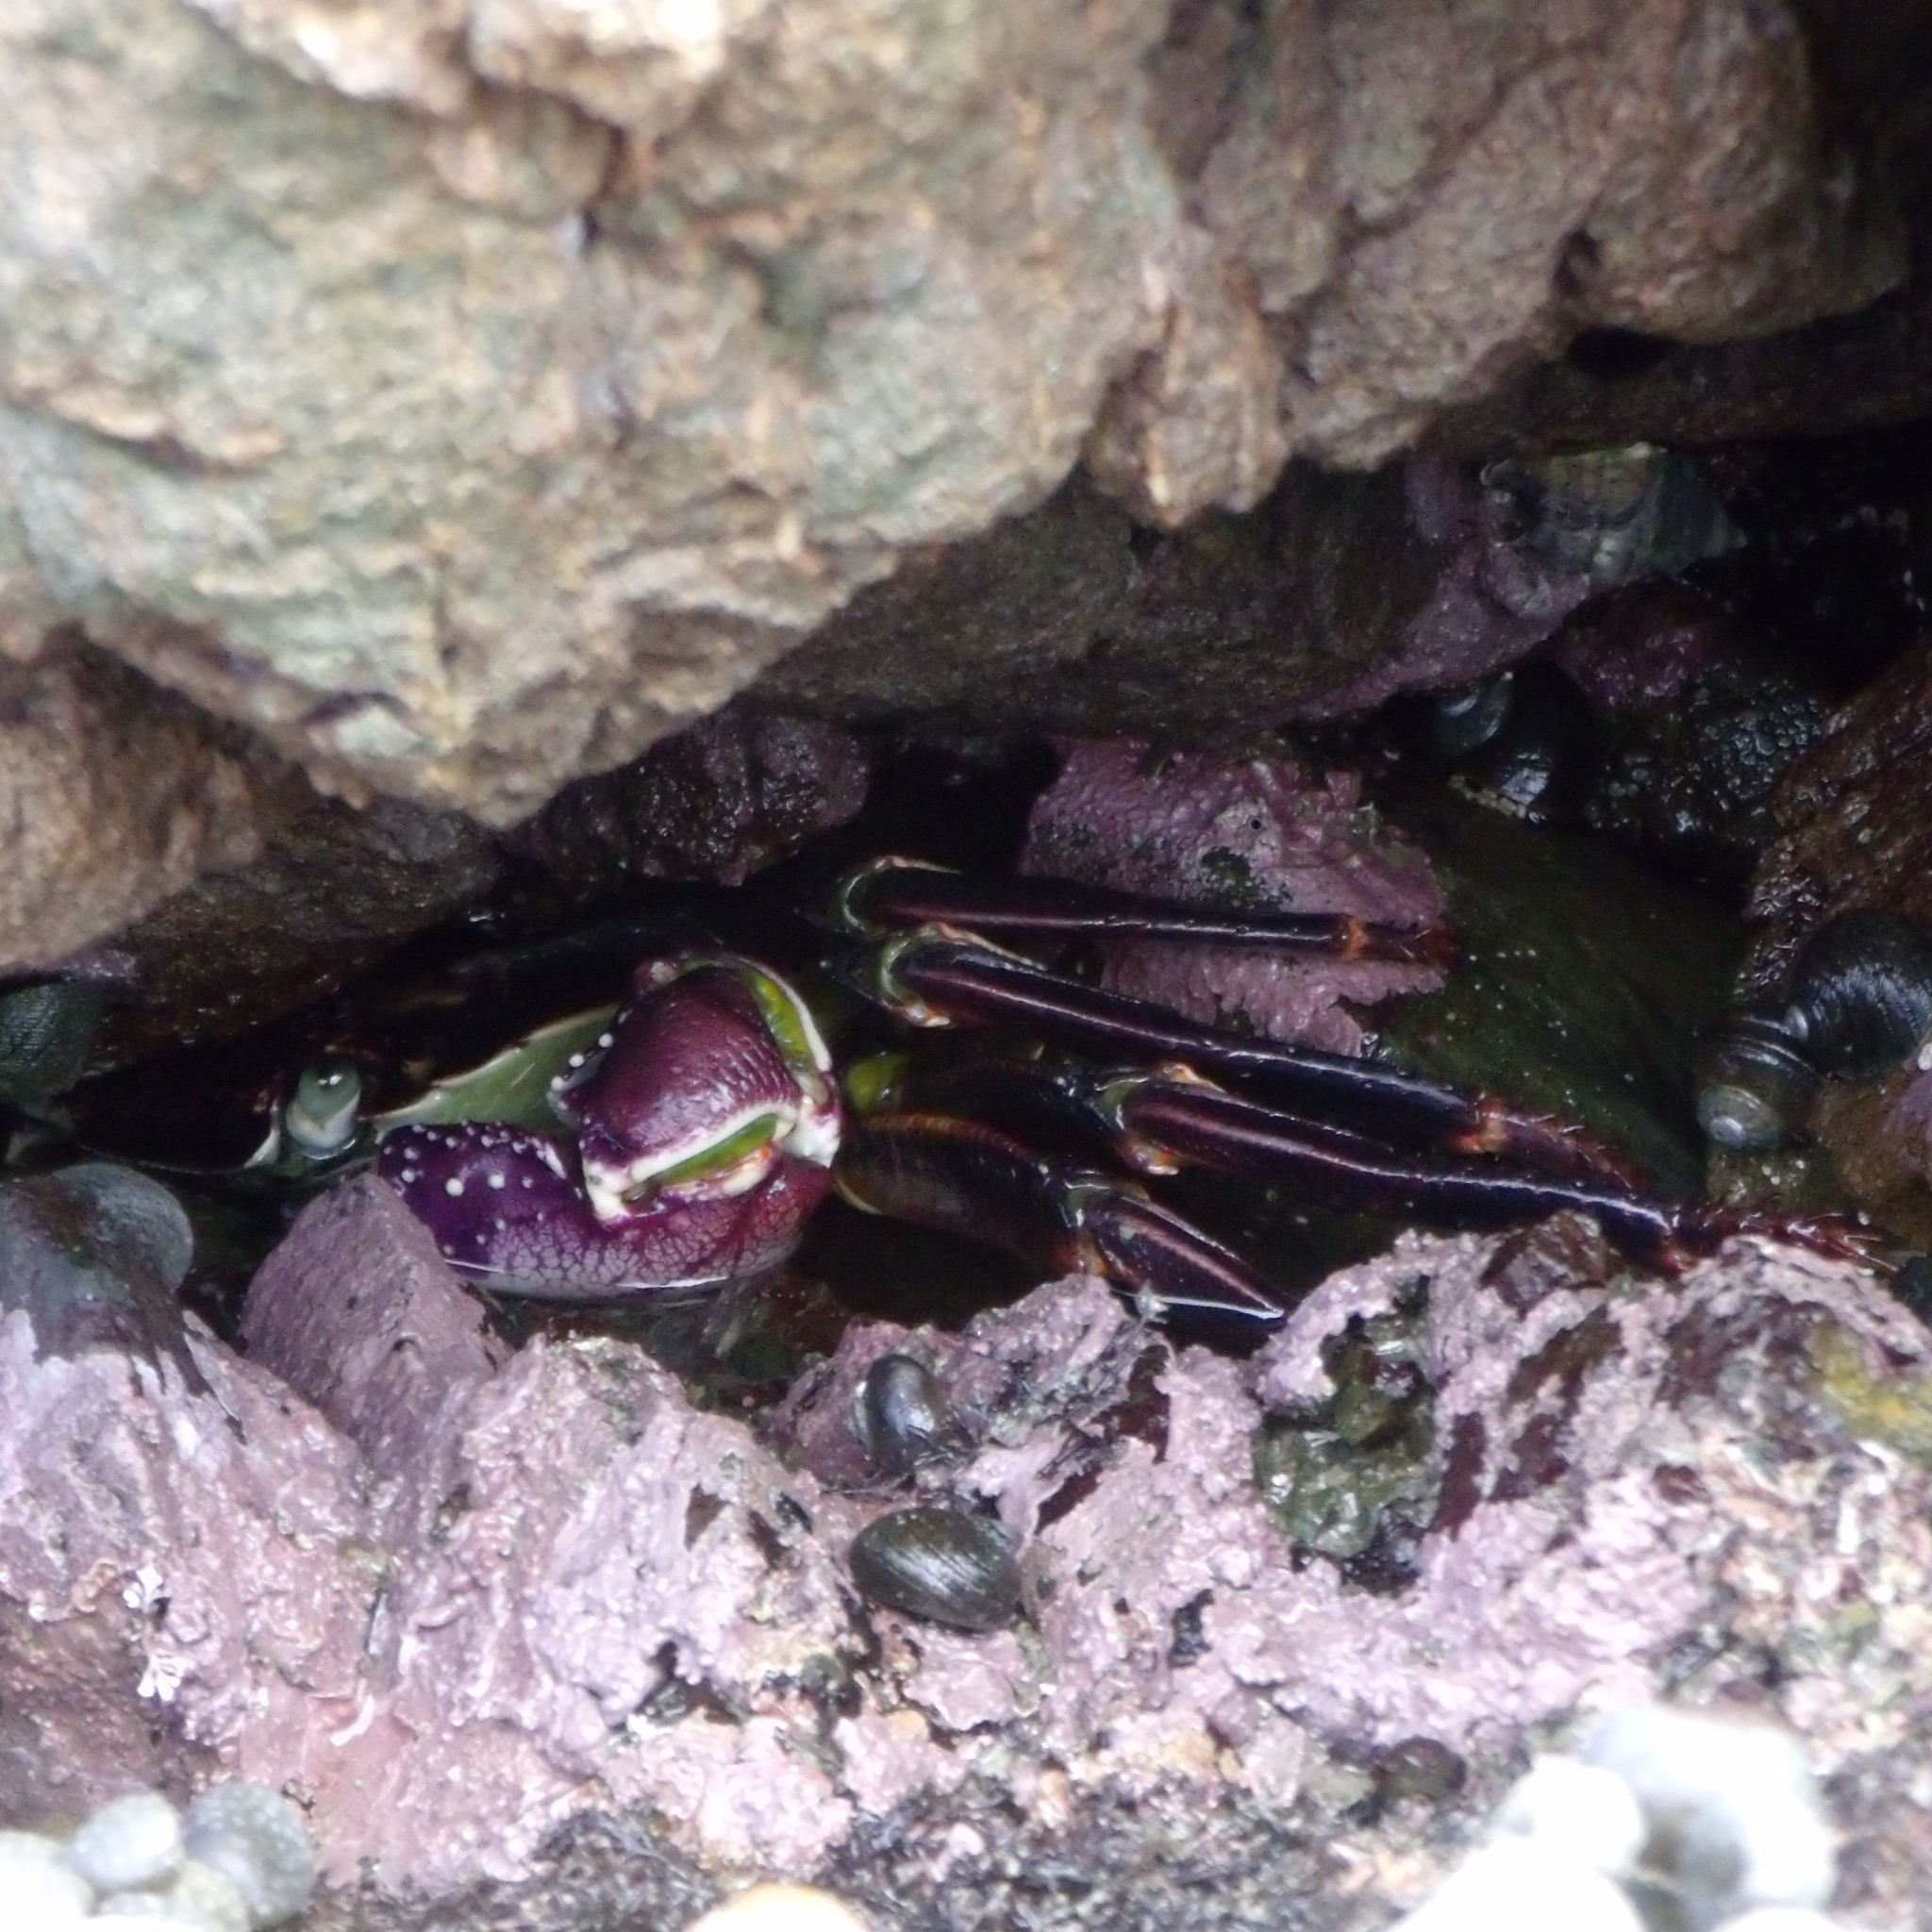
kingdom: Animalia
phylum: Arthropoda
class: Malacostraca
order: Decapoda
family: Grapsidae
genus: Leptograpsus
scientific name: Leptograpsus variegatus
